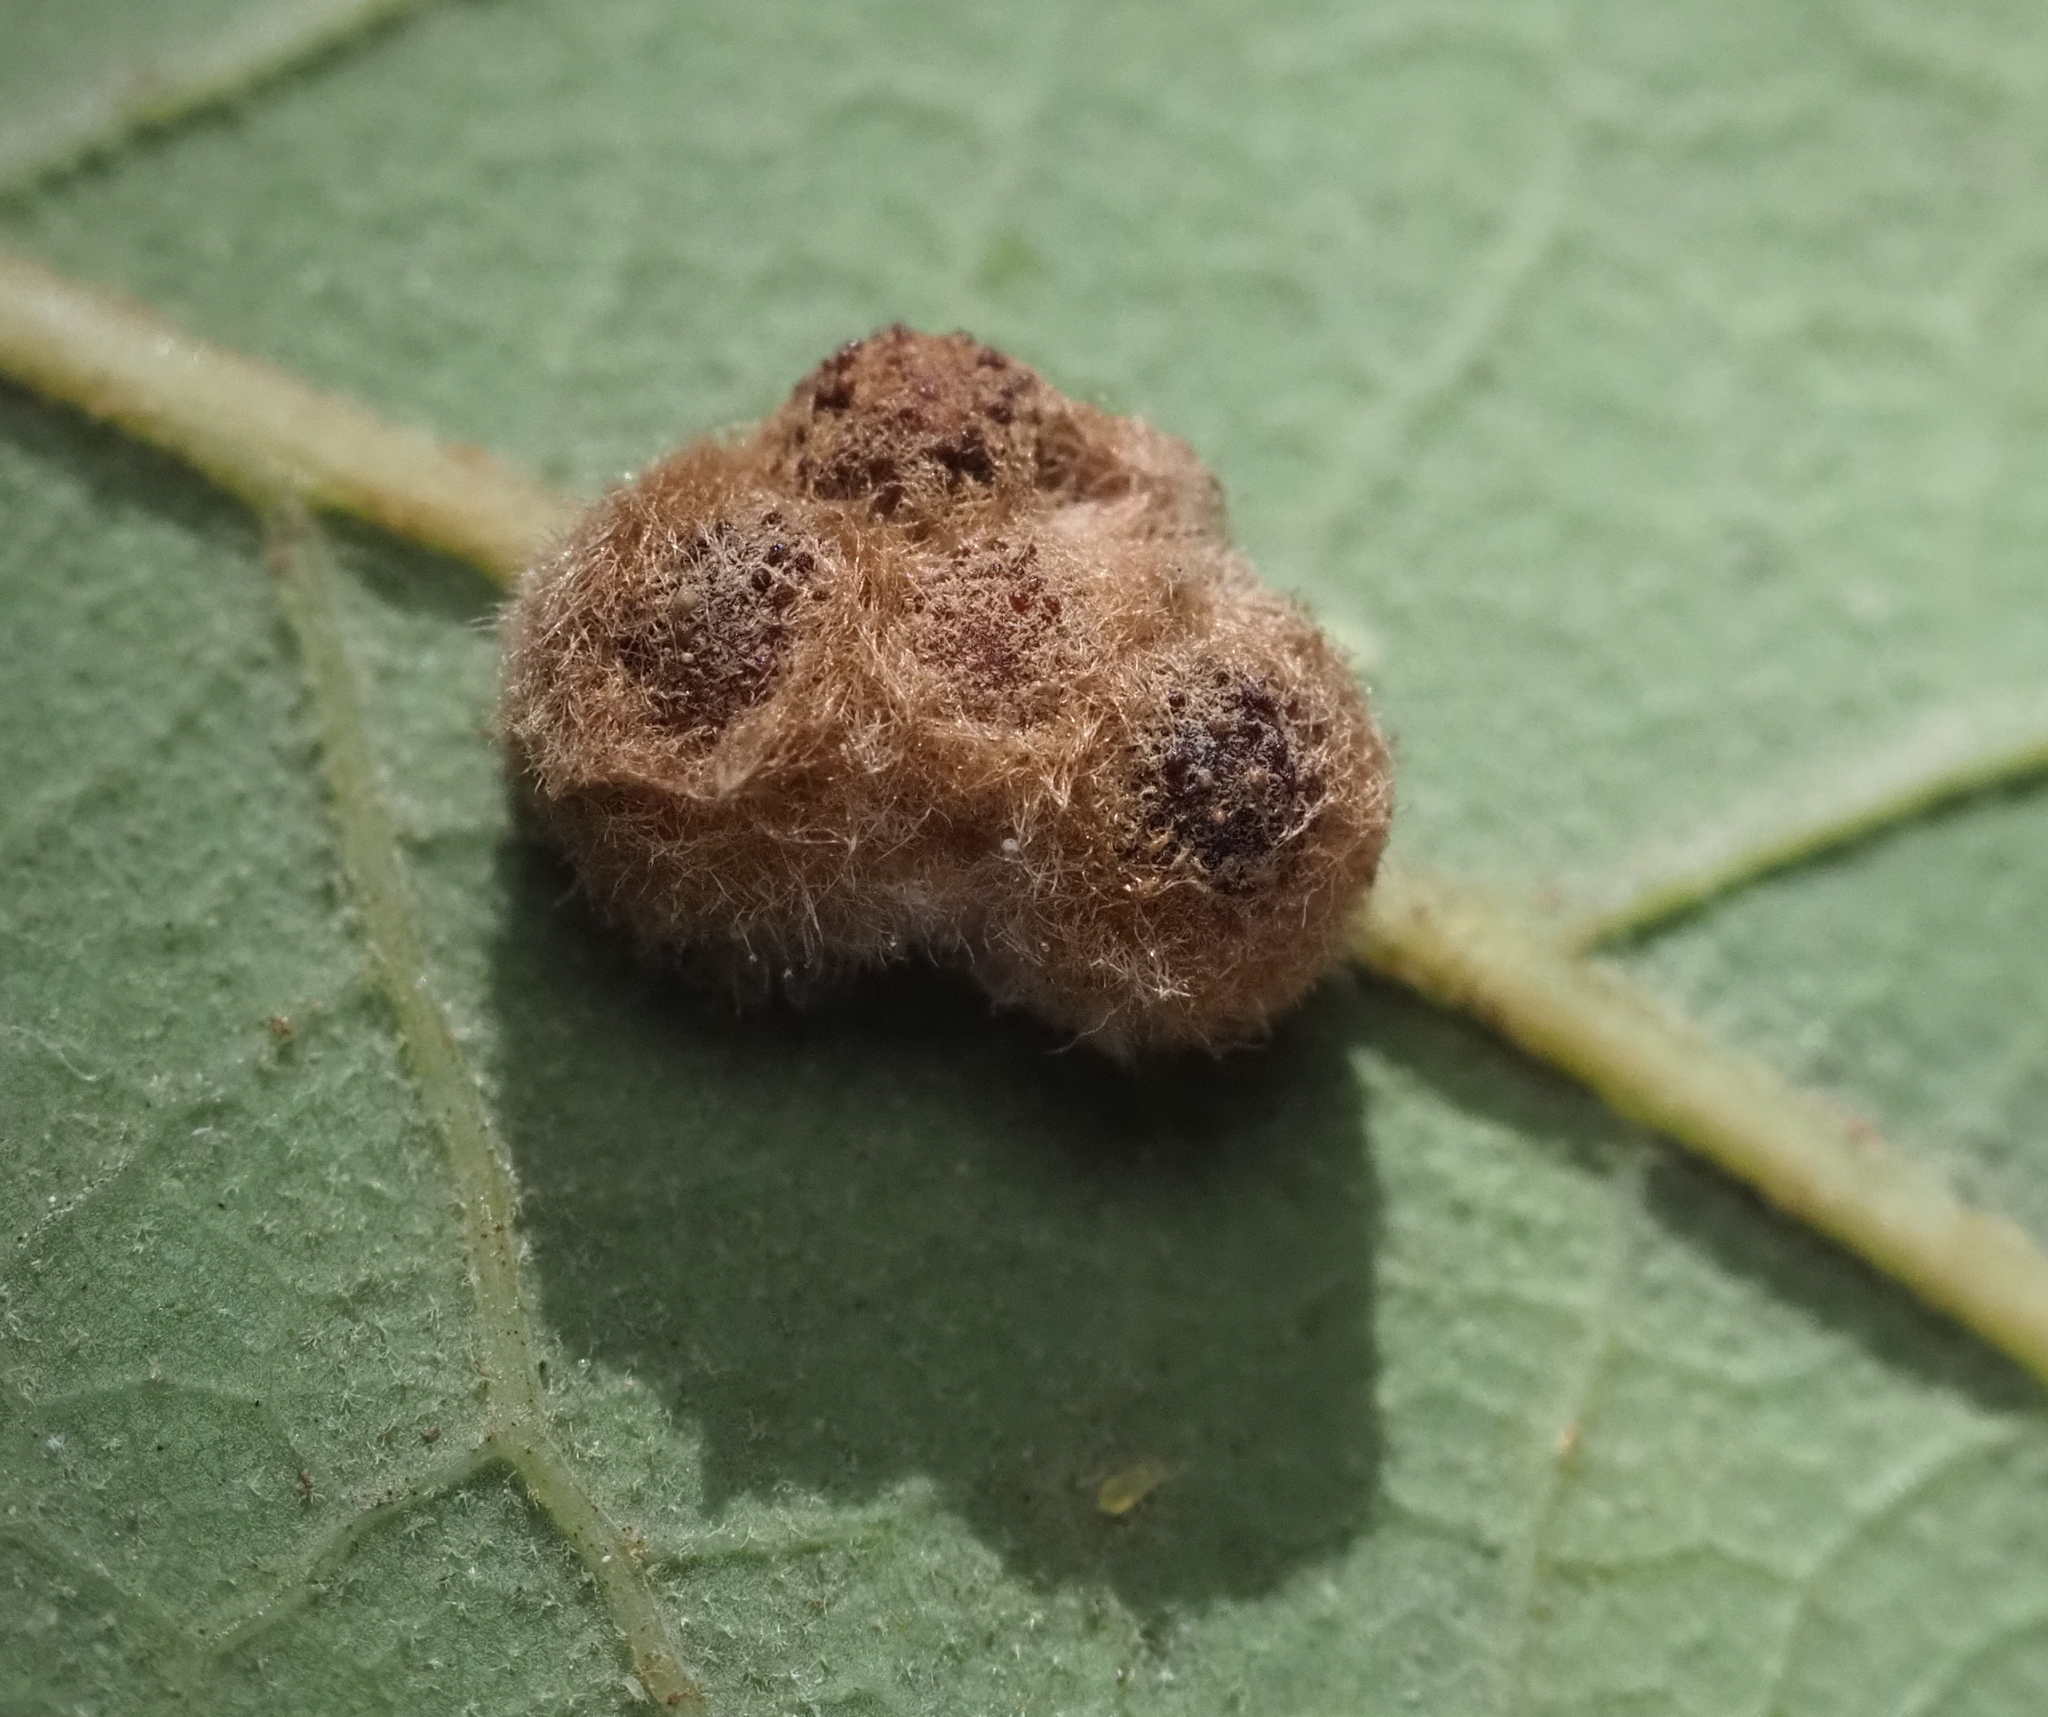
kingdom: Animalia
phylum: Arthropoda
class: Insecta
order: Hymenoptera
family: Cynipidae
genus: Andricus
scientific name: Andricus Druon pattoni
